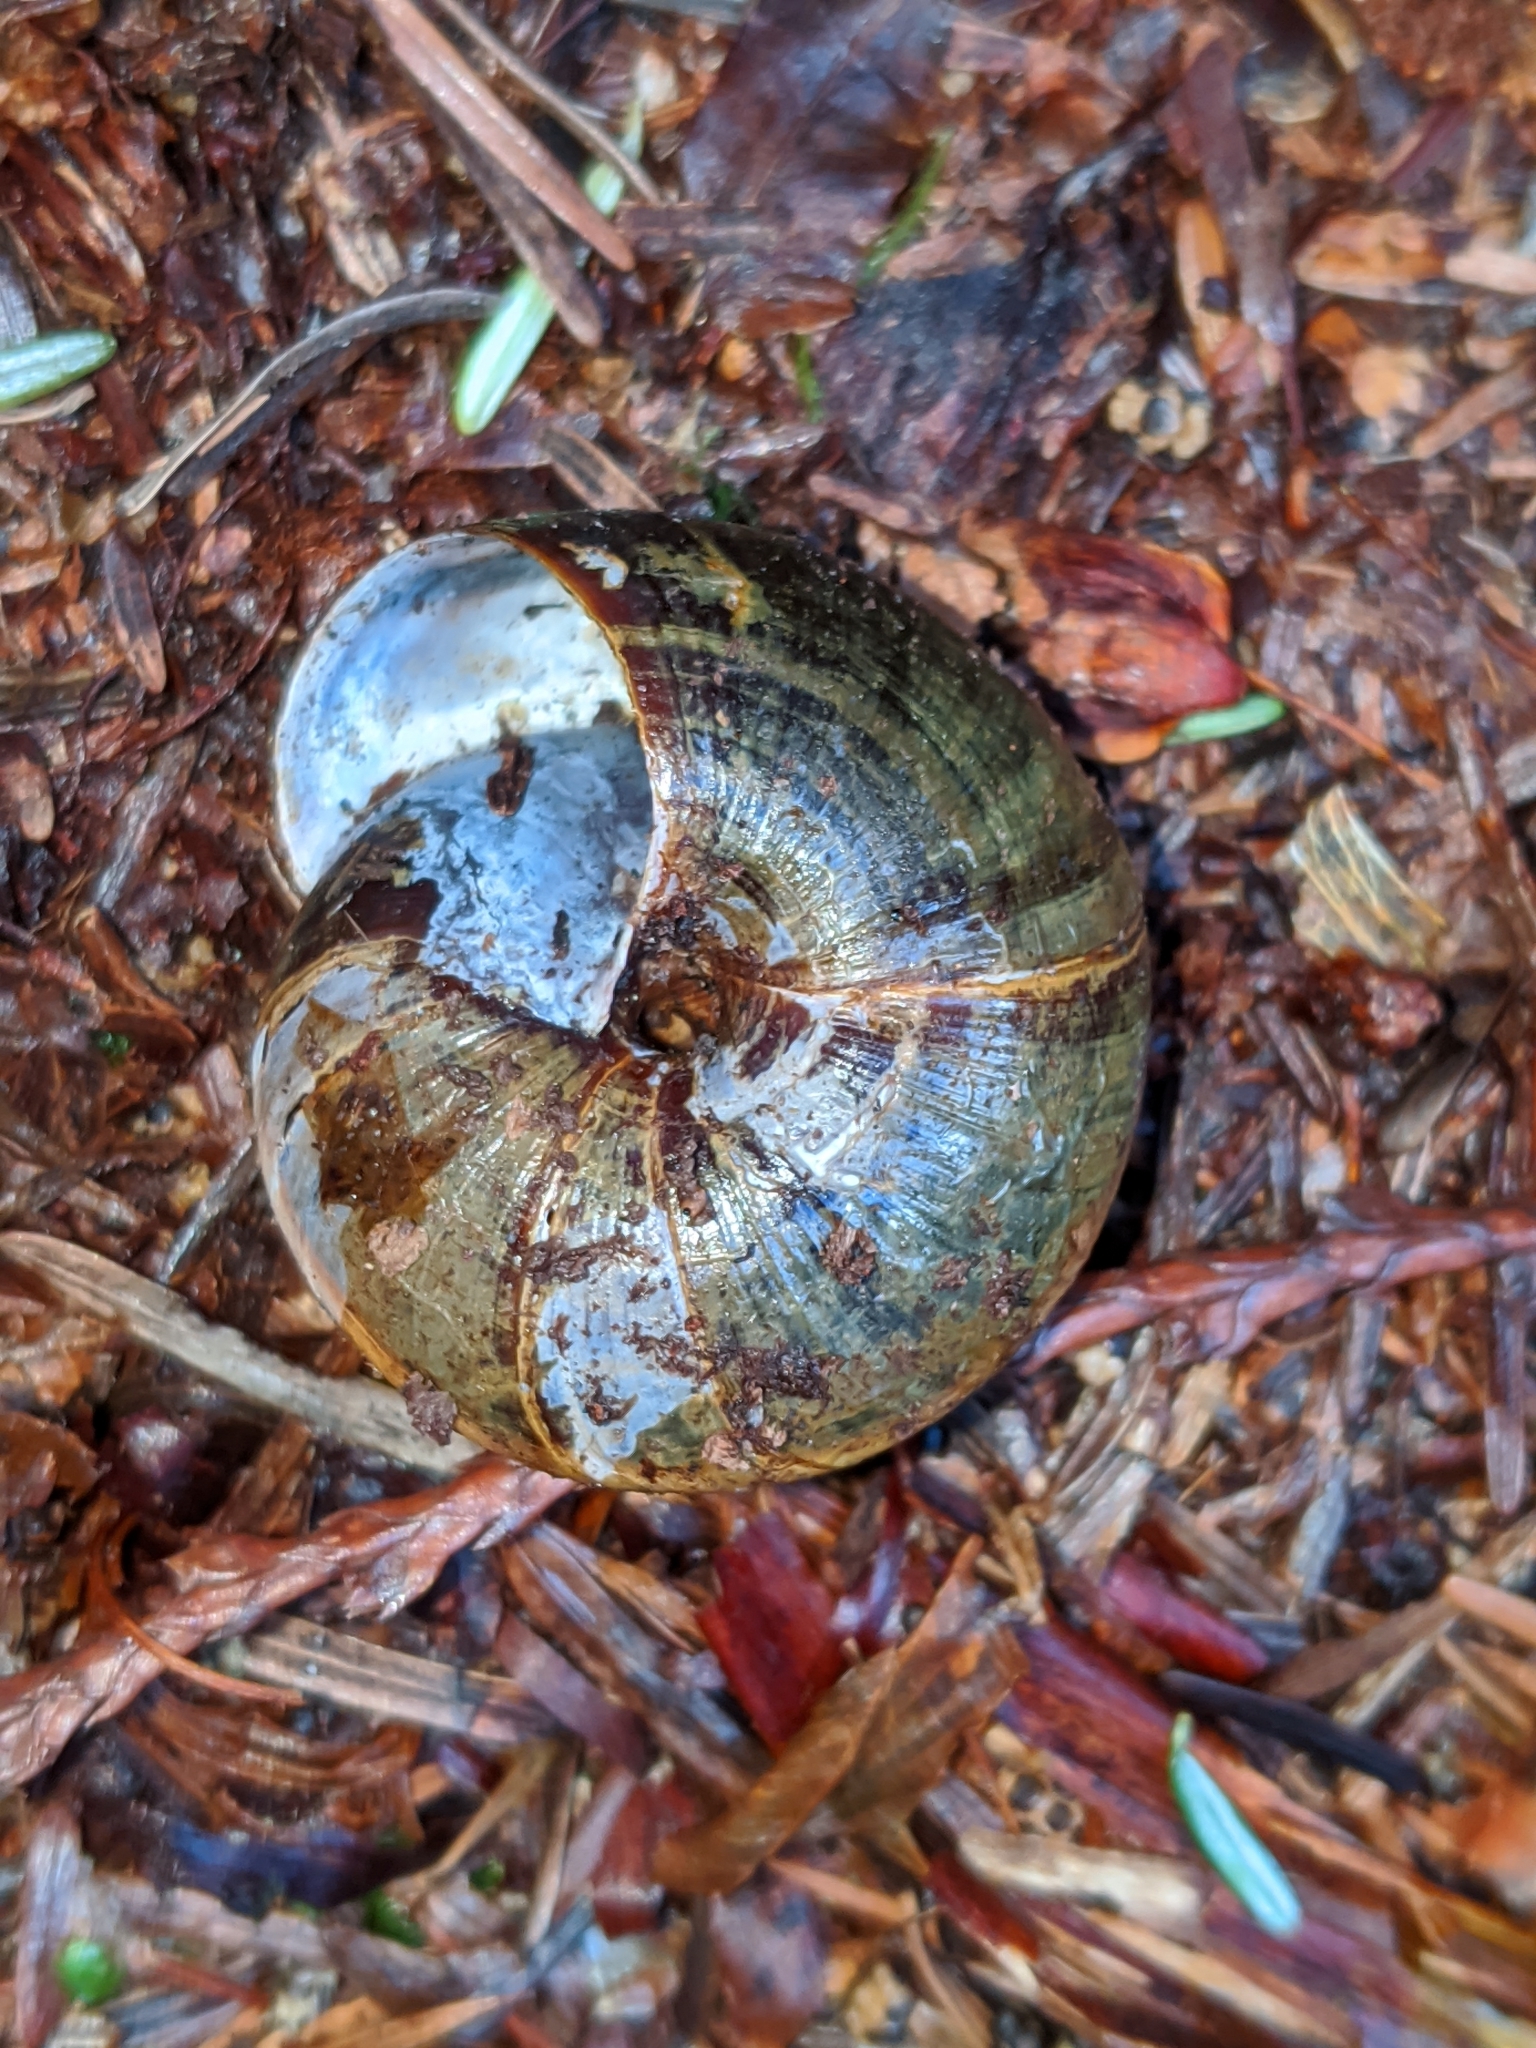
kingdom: Animalia
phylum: Mollusca
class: Gastropoda
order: Stylommatophora
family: Xanthonychidae
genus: Monadenia
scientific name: Monadenia fidelis
